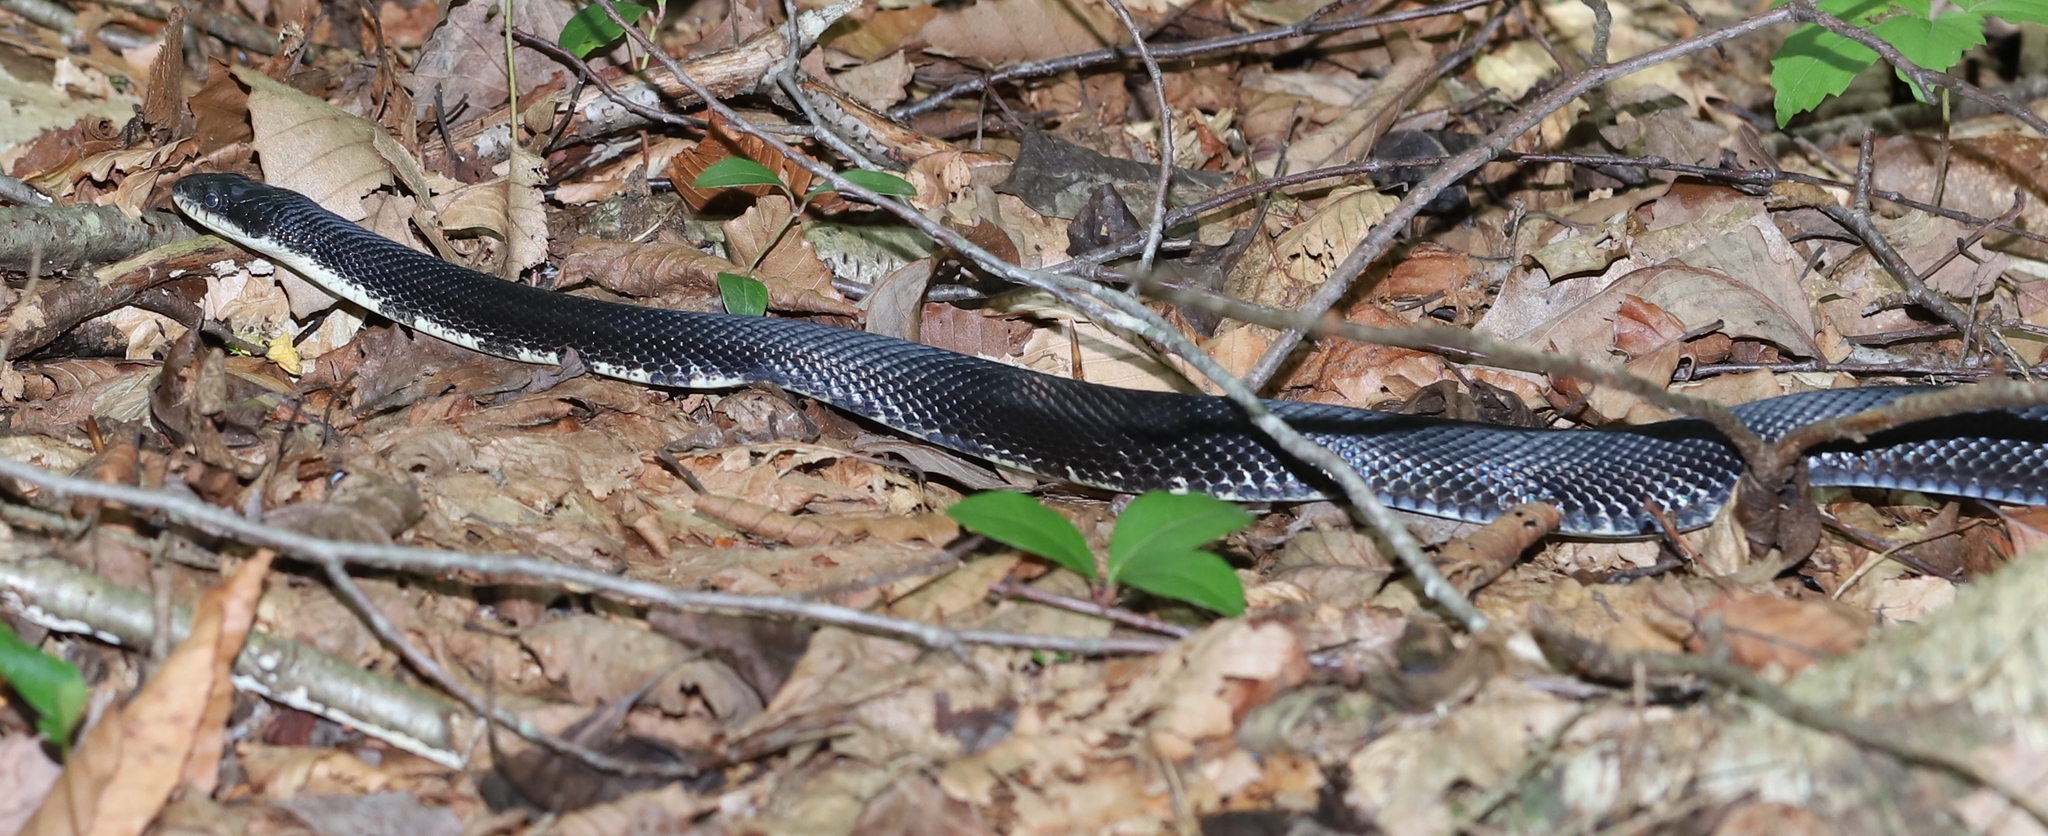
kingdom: Animalia
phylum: Chordata
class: Squamata
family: Colubridae
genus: Pantherophis
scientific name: Pantherophis alleghaniensis
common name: Eastern rat snake
